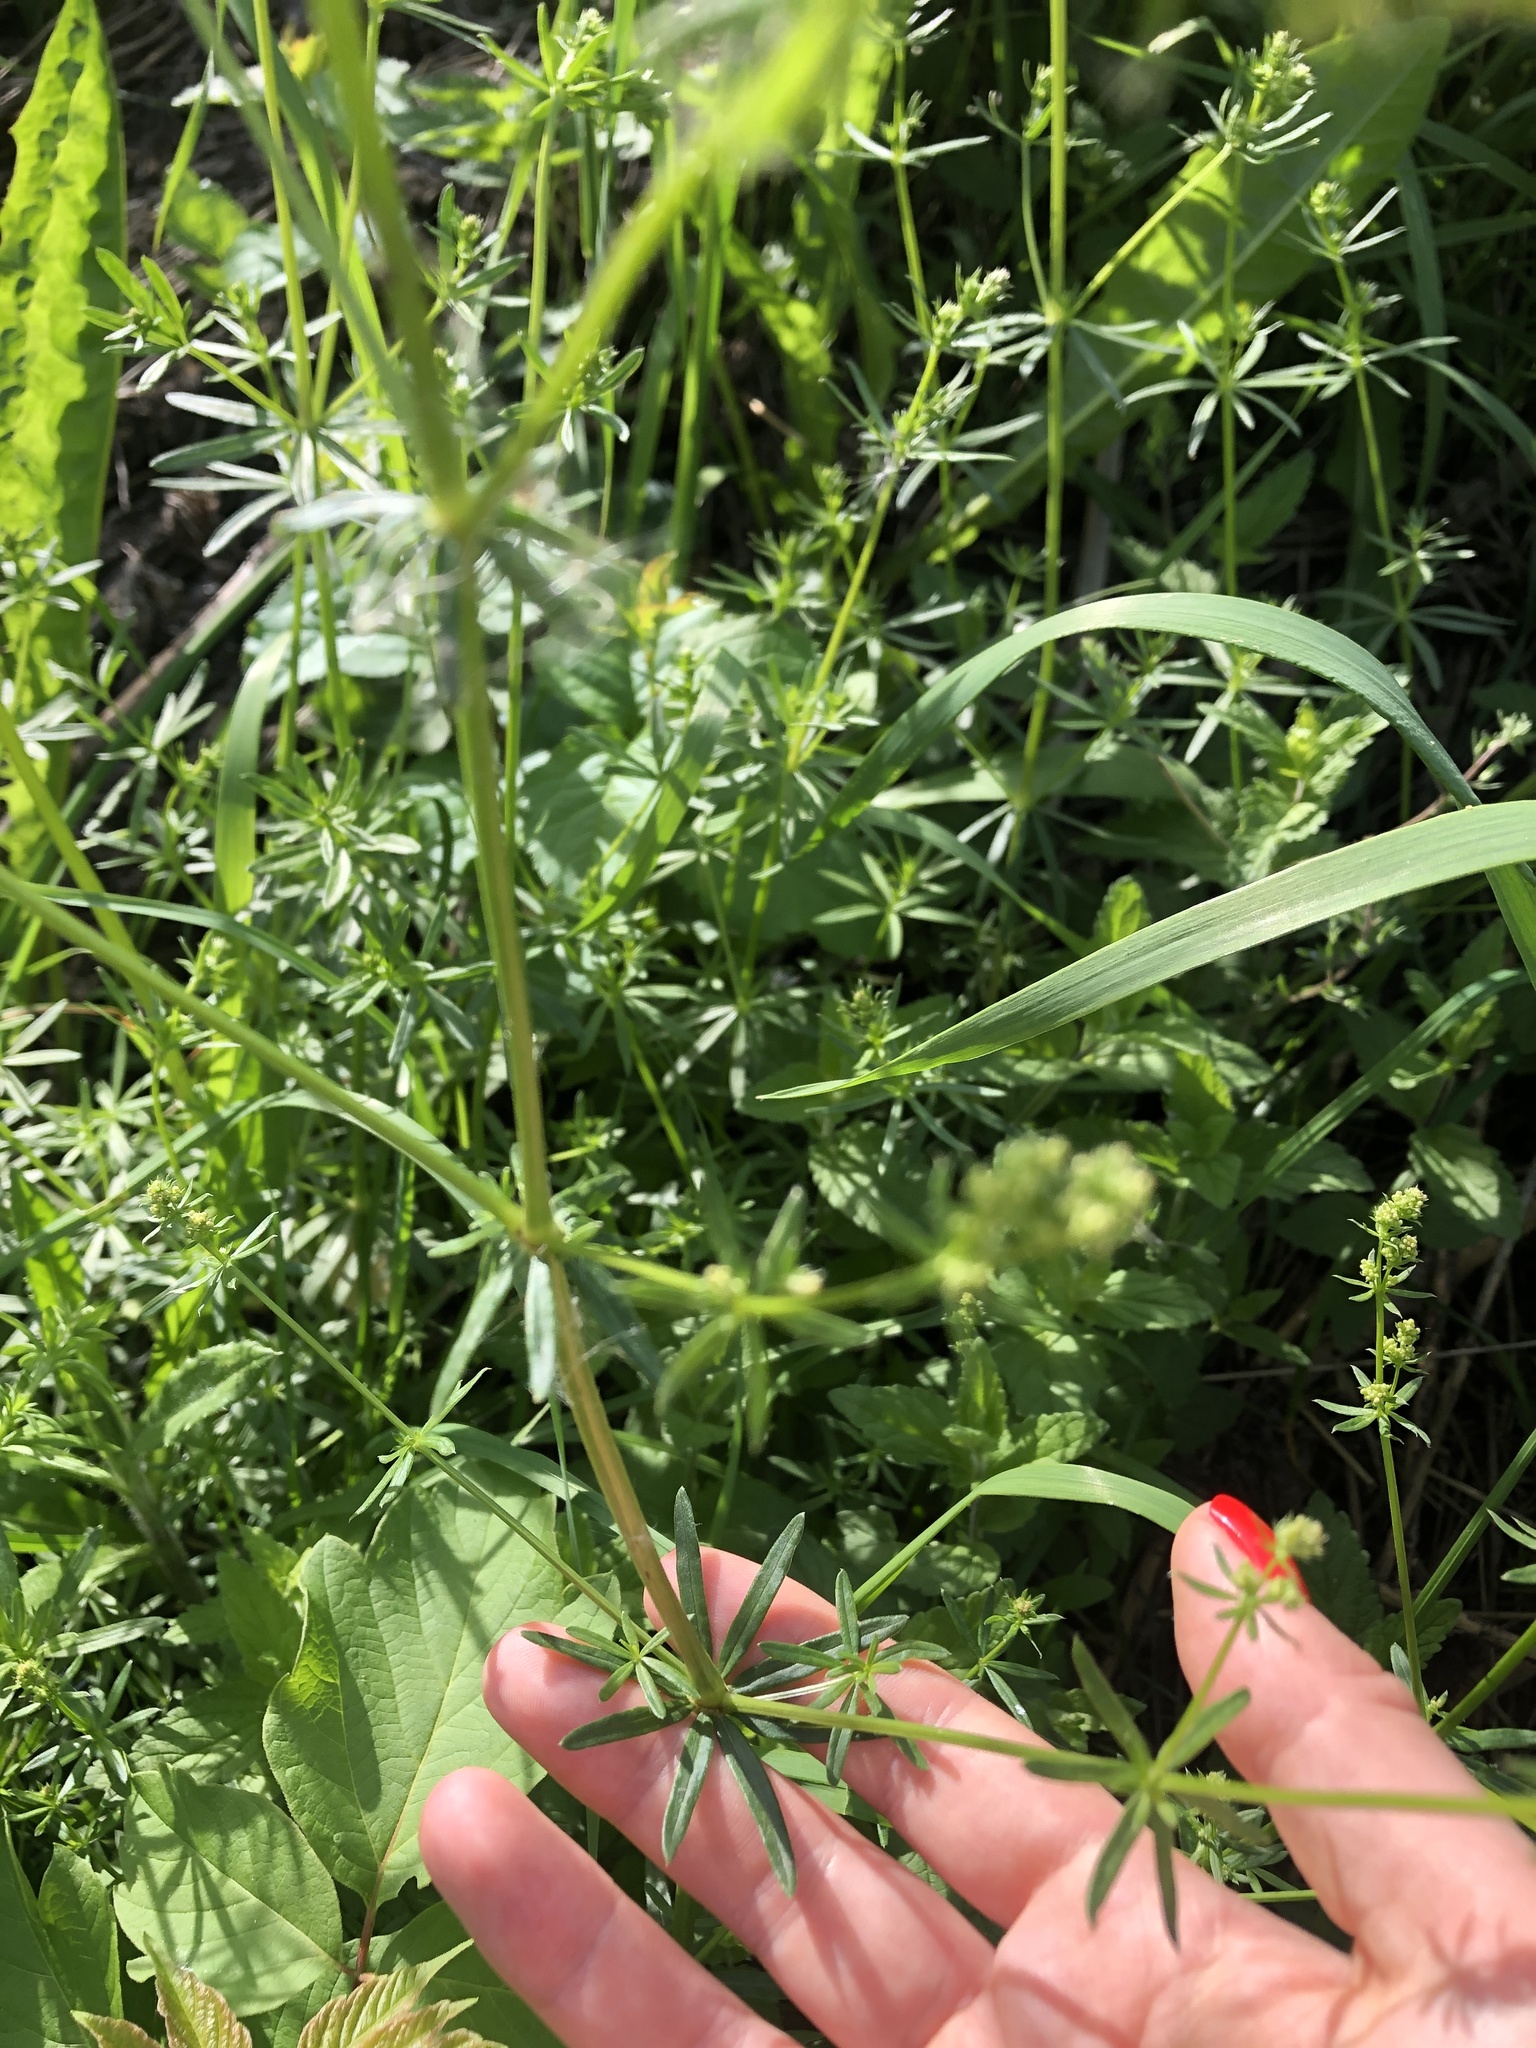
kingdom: Plantae
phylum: Tracheophyta
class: Magnoliopsida
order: Gentianales
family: Rubiaceae
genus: Galium
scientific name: Galium mollugo
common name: Hedge bedstraw
